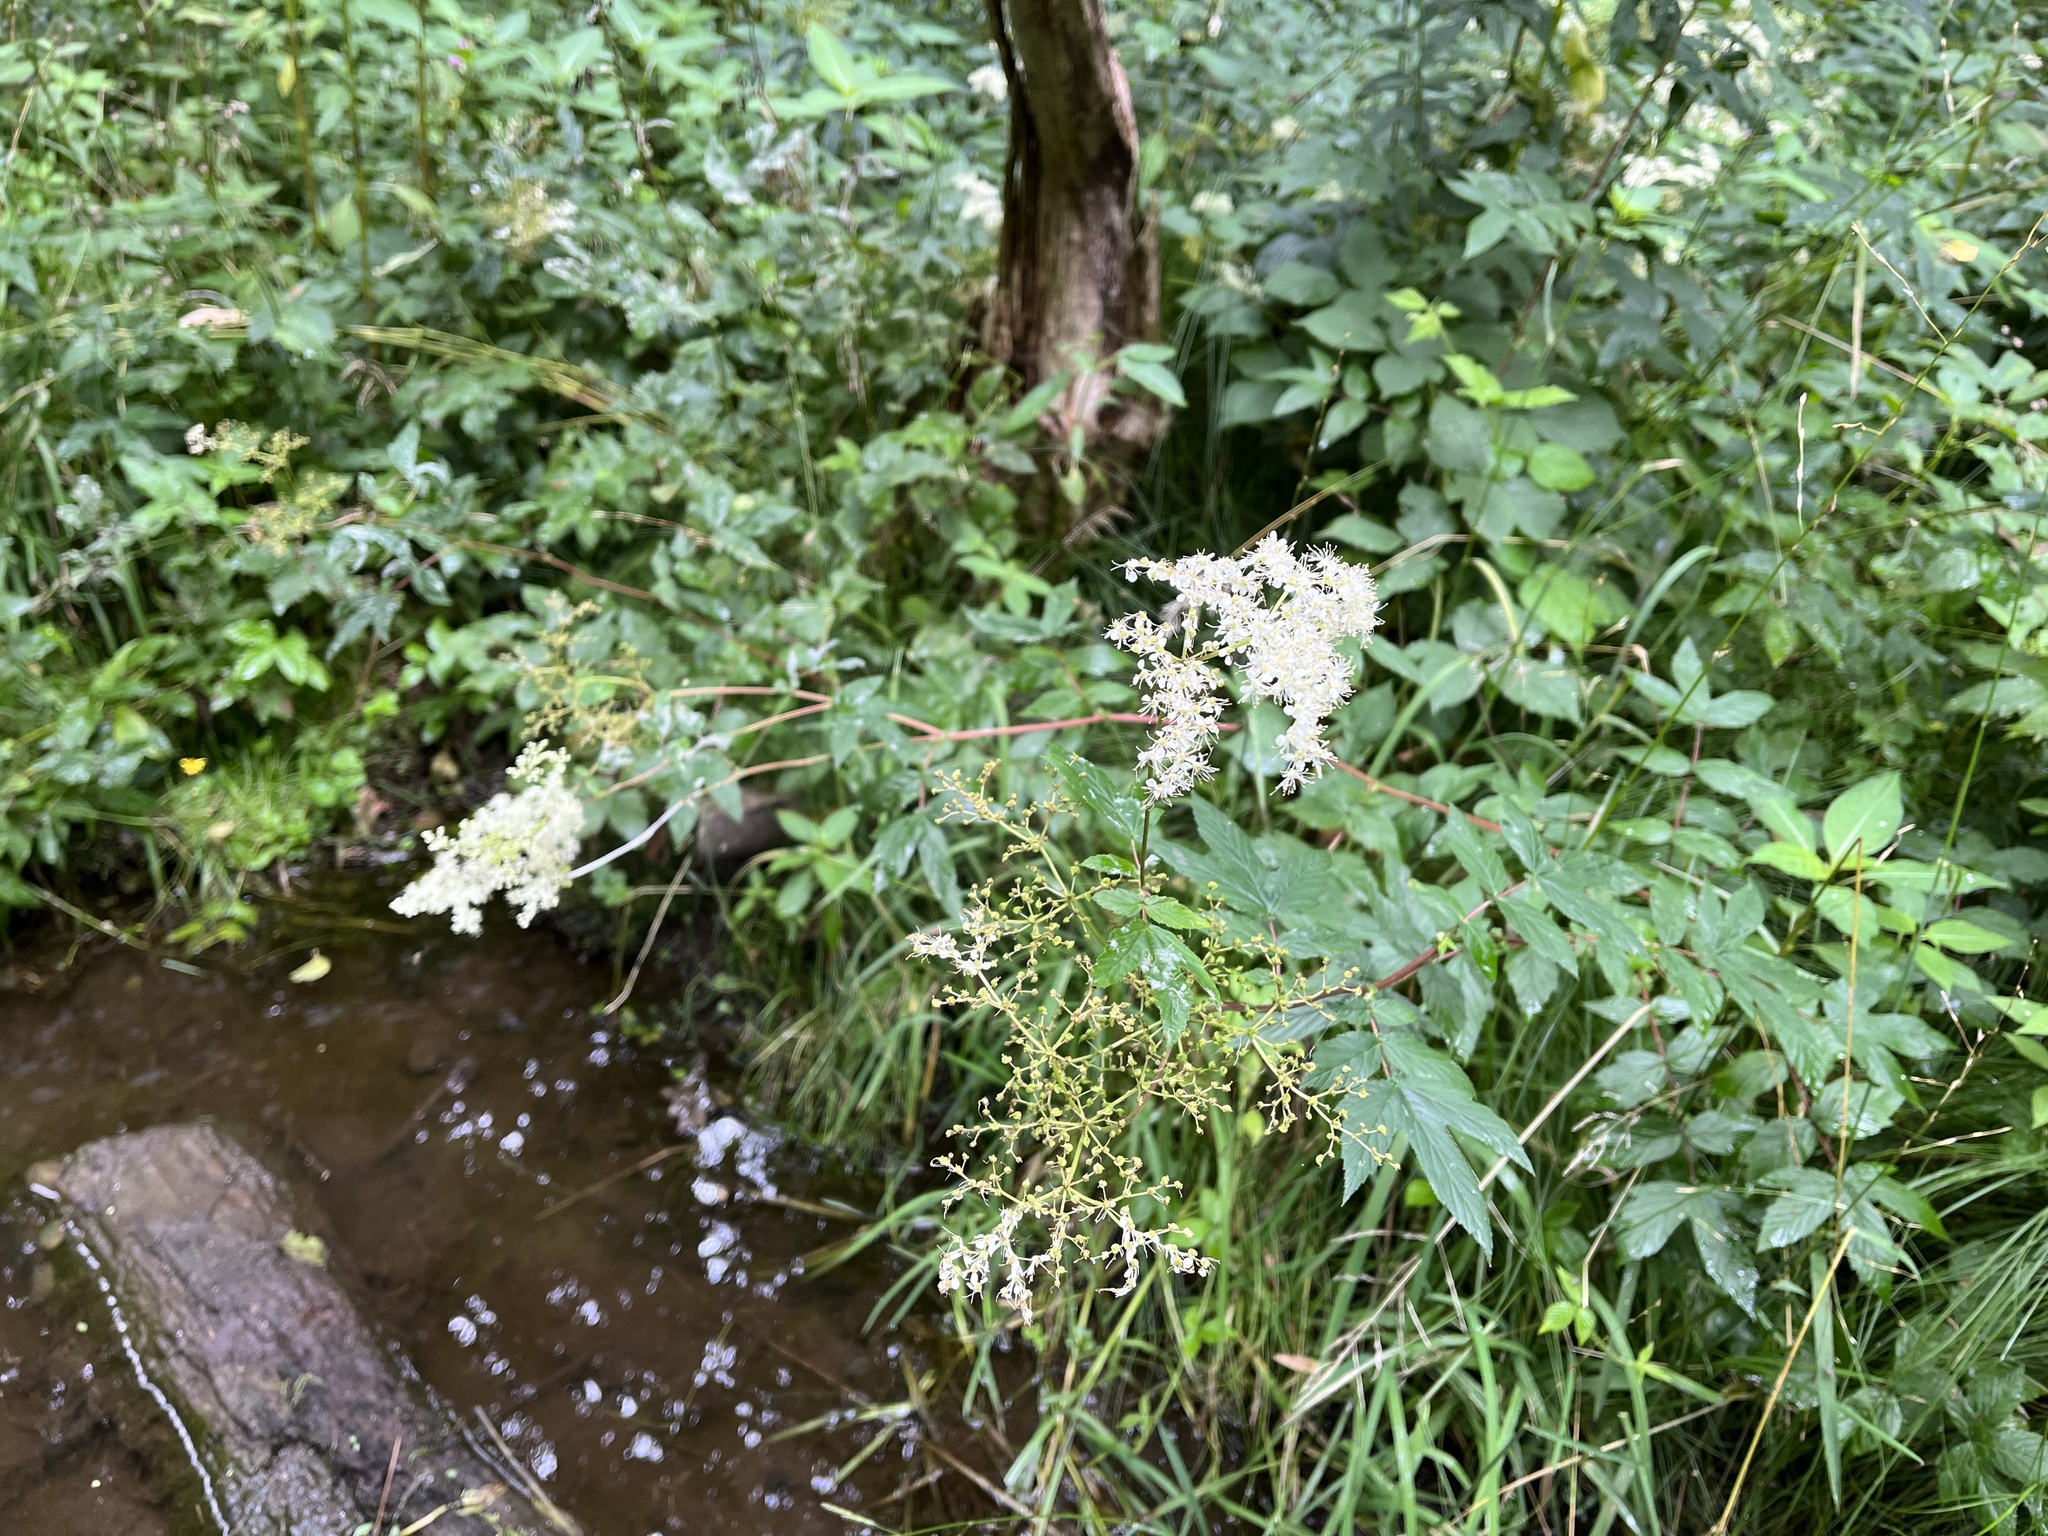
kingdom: Plantae
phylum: Tracheophyta
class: Magnoliopsida
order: Rosales
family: Rosaceae
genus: Filipendula
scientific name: Filipendula ulmaria
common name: Meadowsweet
